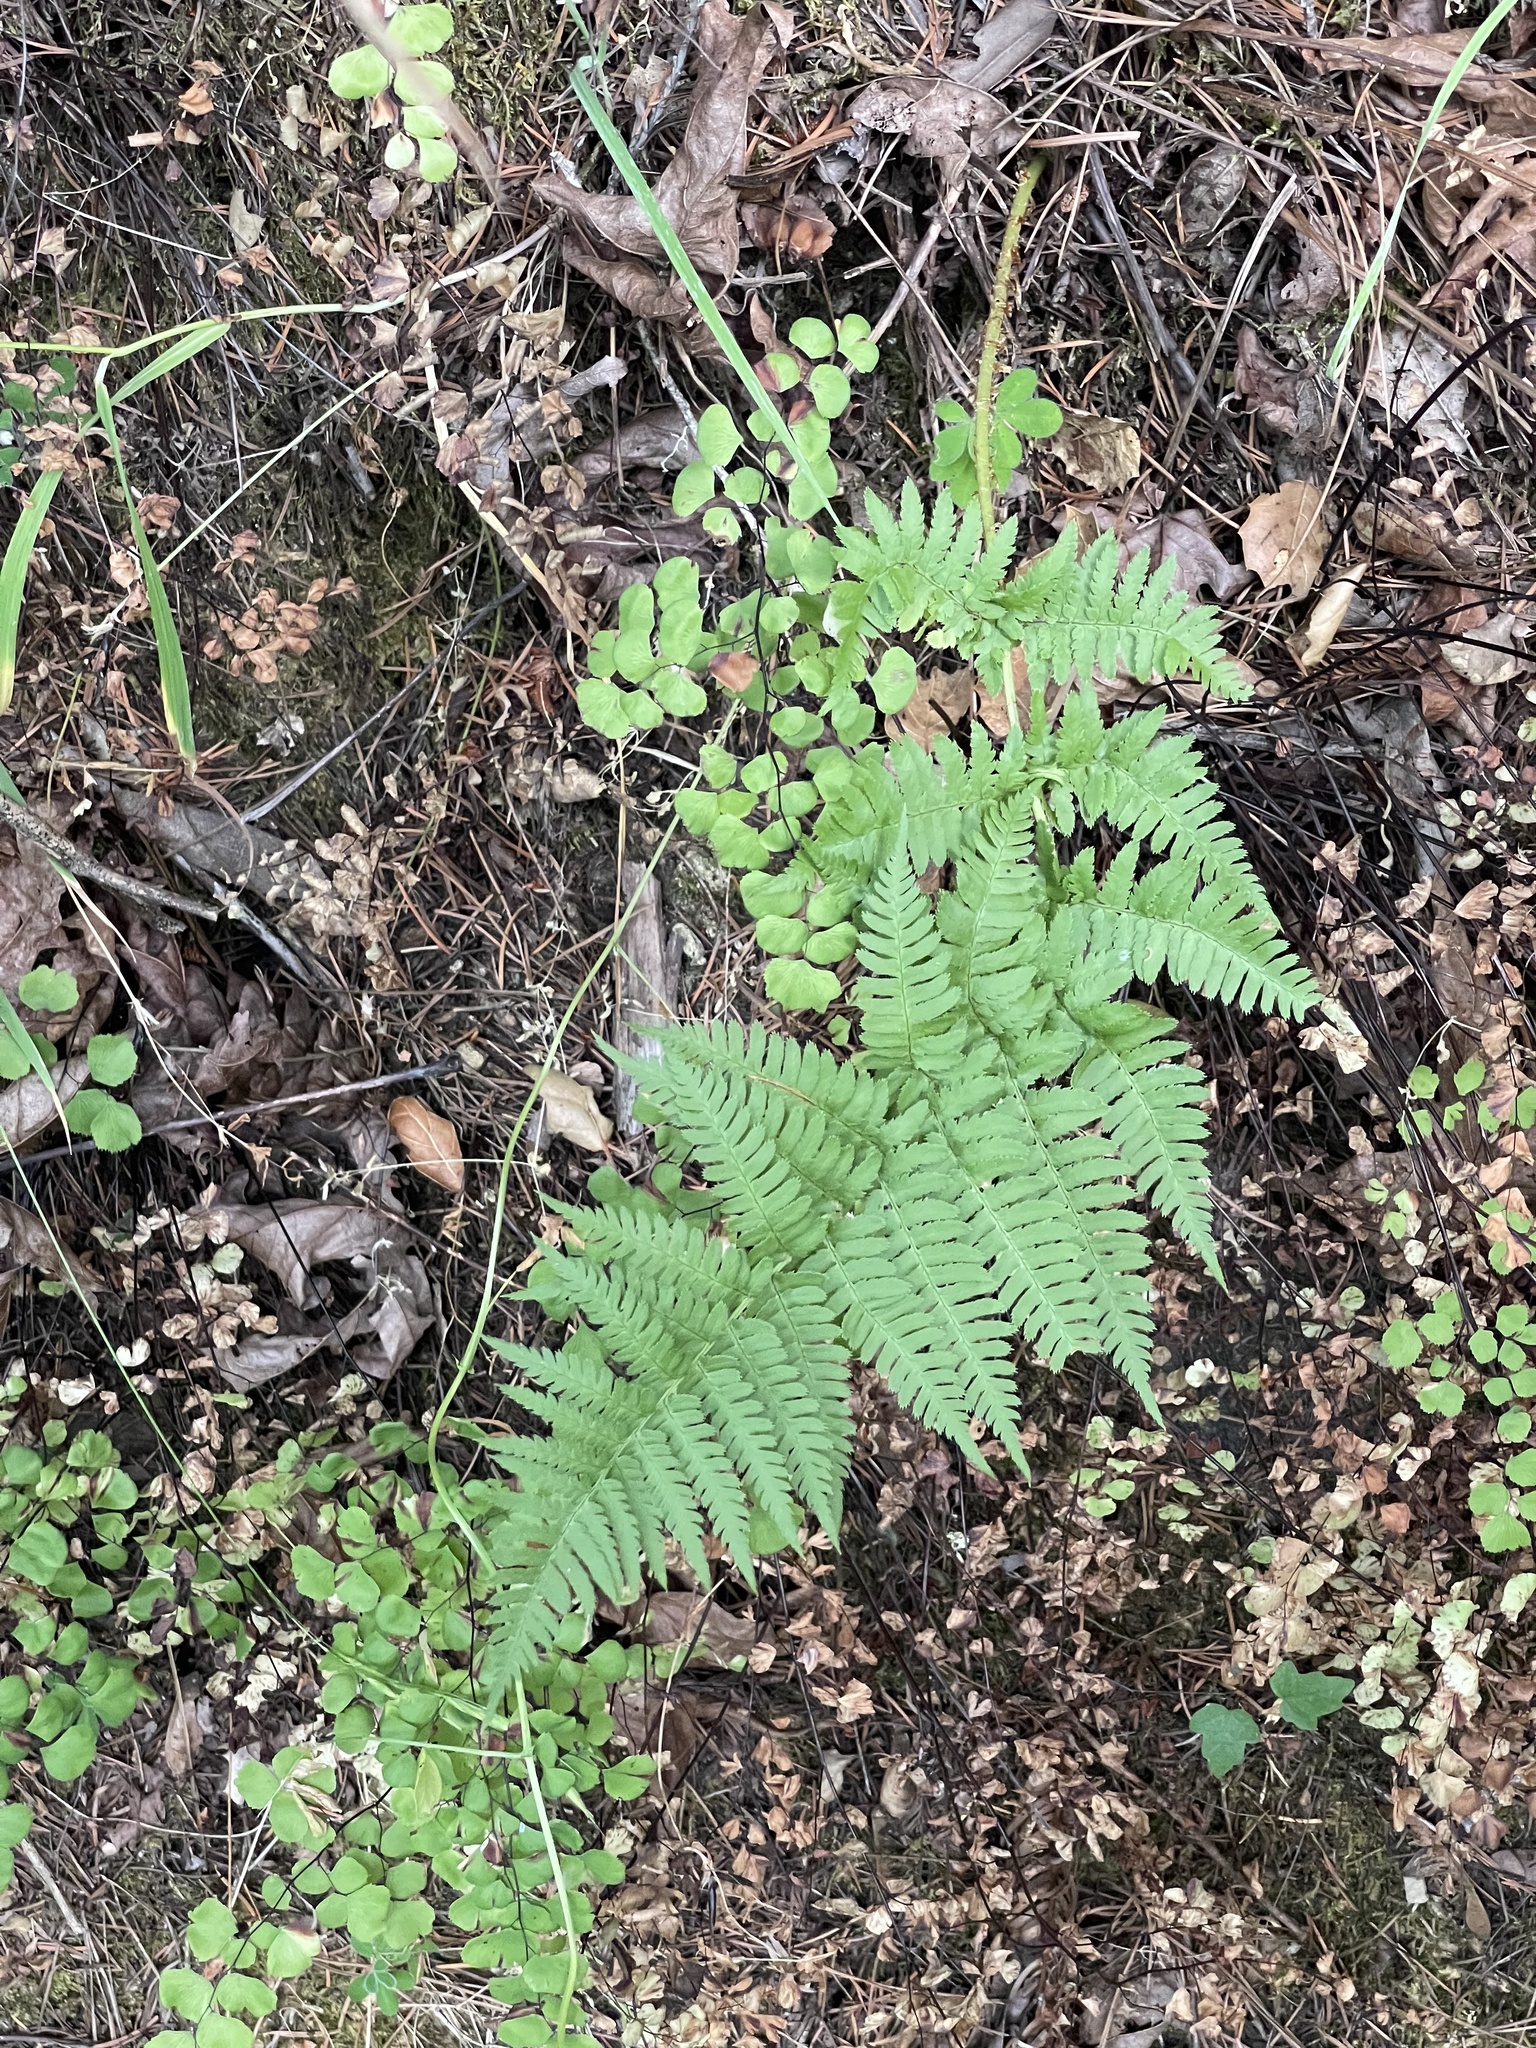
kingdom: Plantae
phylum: Tracheophyta
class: Polypodiopsida
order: Polypodiales
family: Dryopteridaceae
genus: Dryopteris
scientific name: Dryopteris arguta
